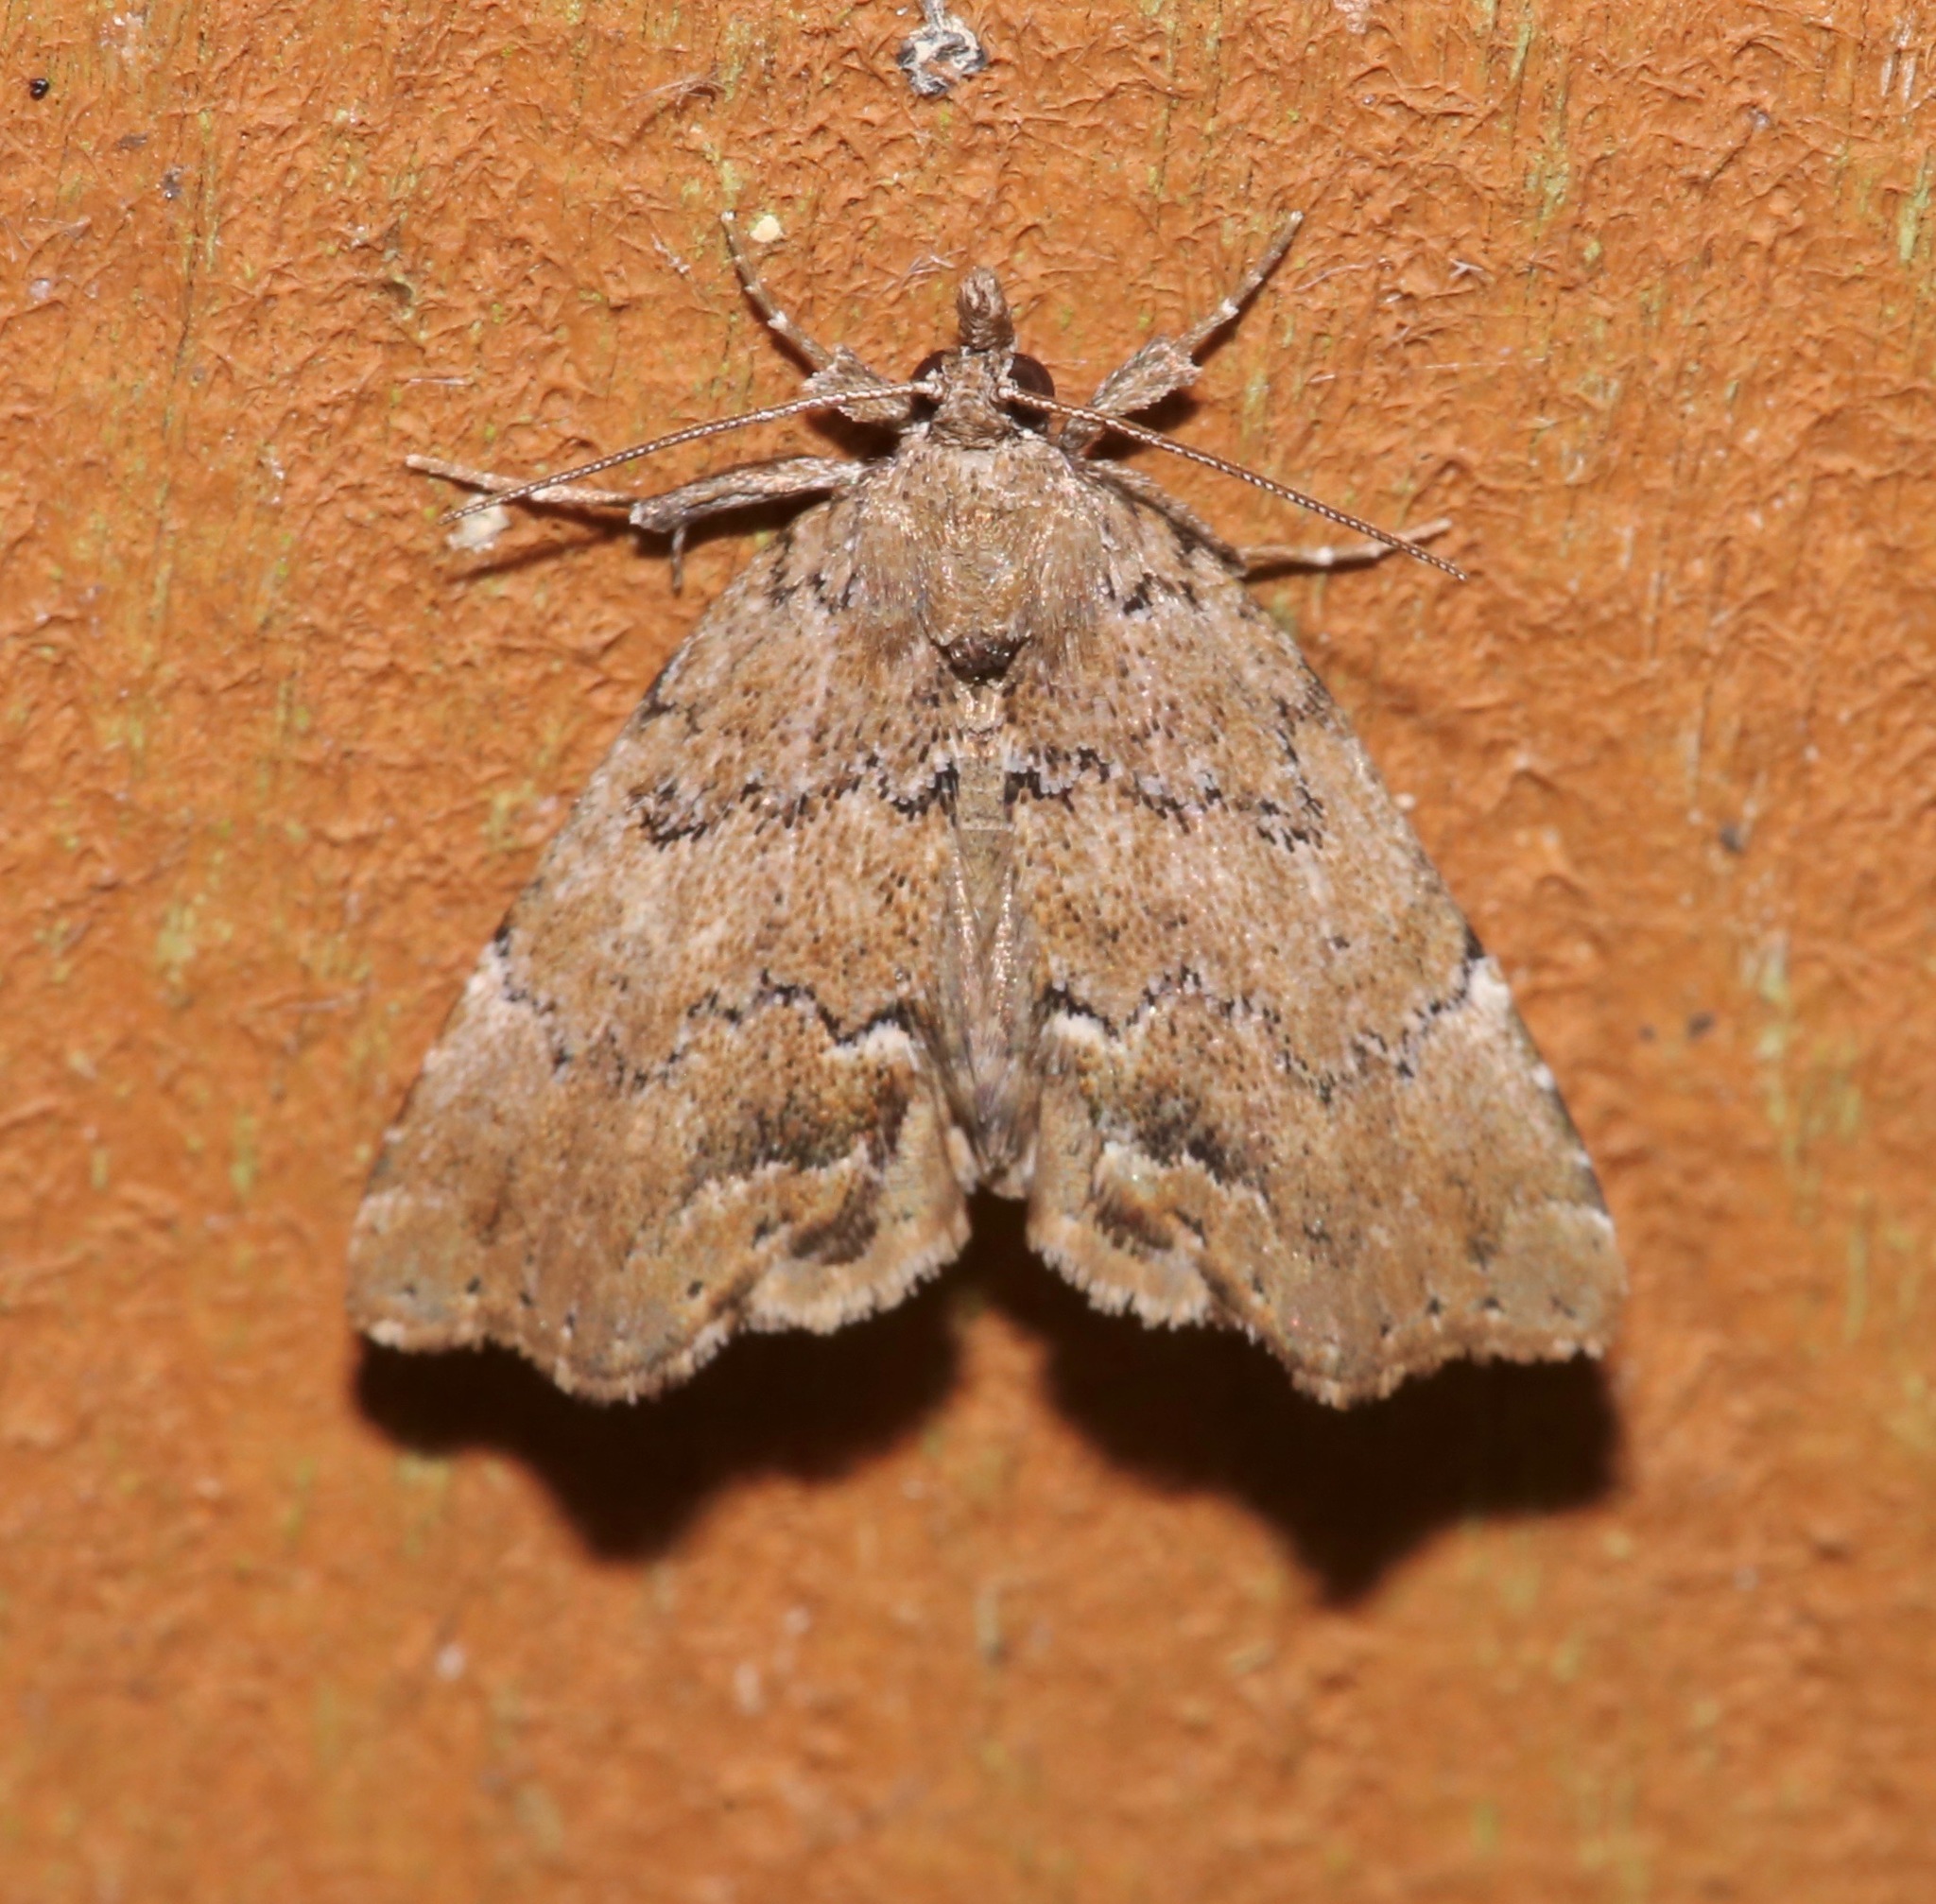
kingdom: Animalia
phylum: Arthropoda
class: Insecta
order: Lepidoptera
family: Erebidae
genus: Cutina
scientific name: Cutina aluticolor
